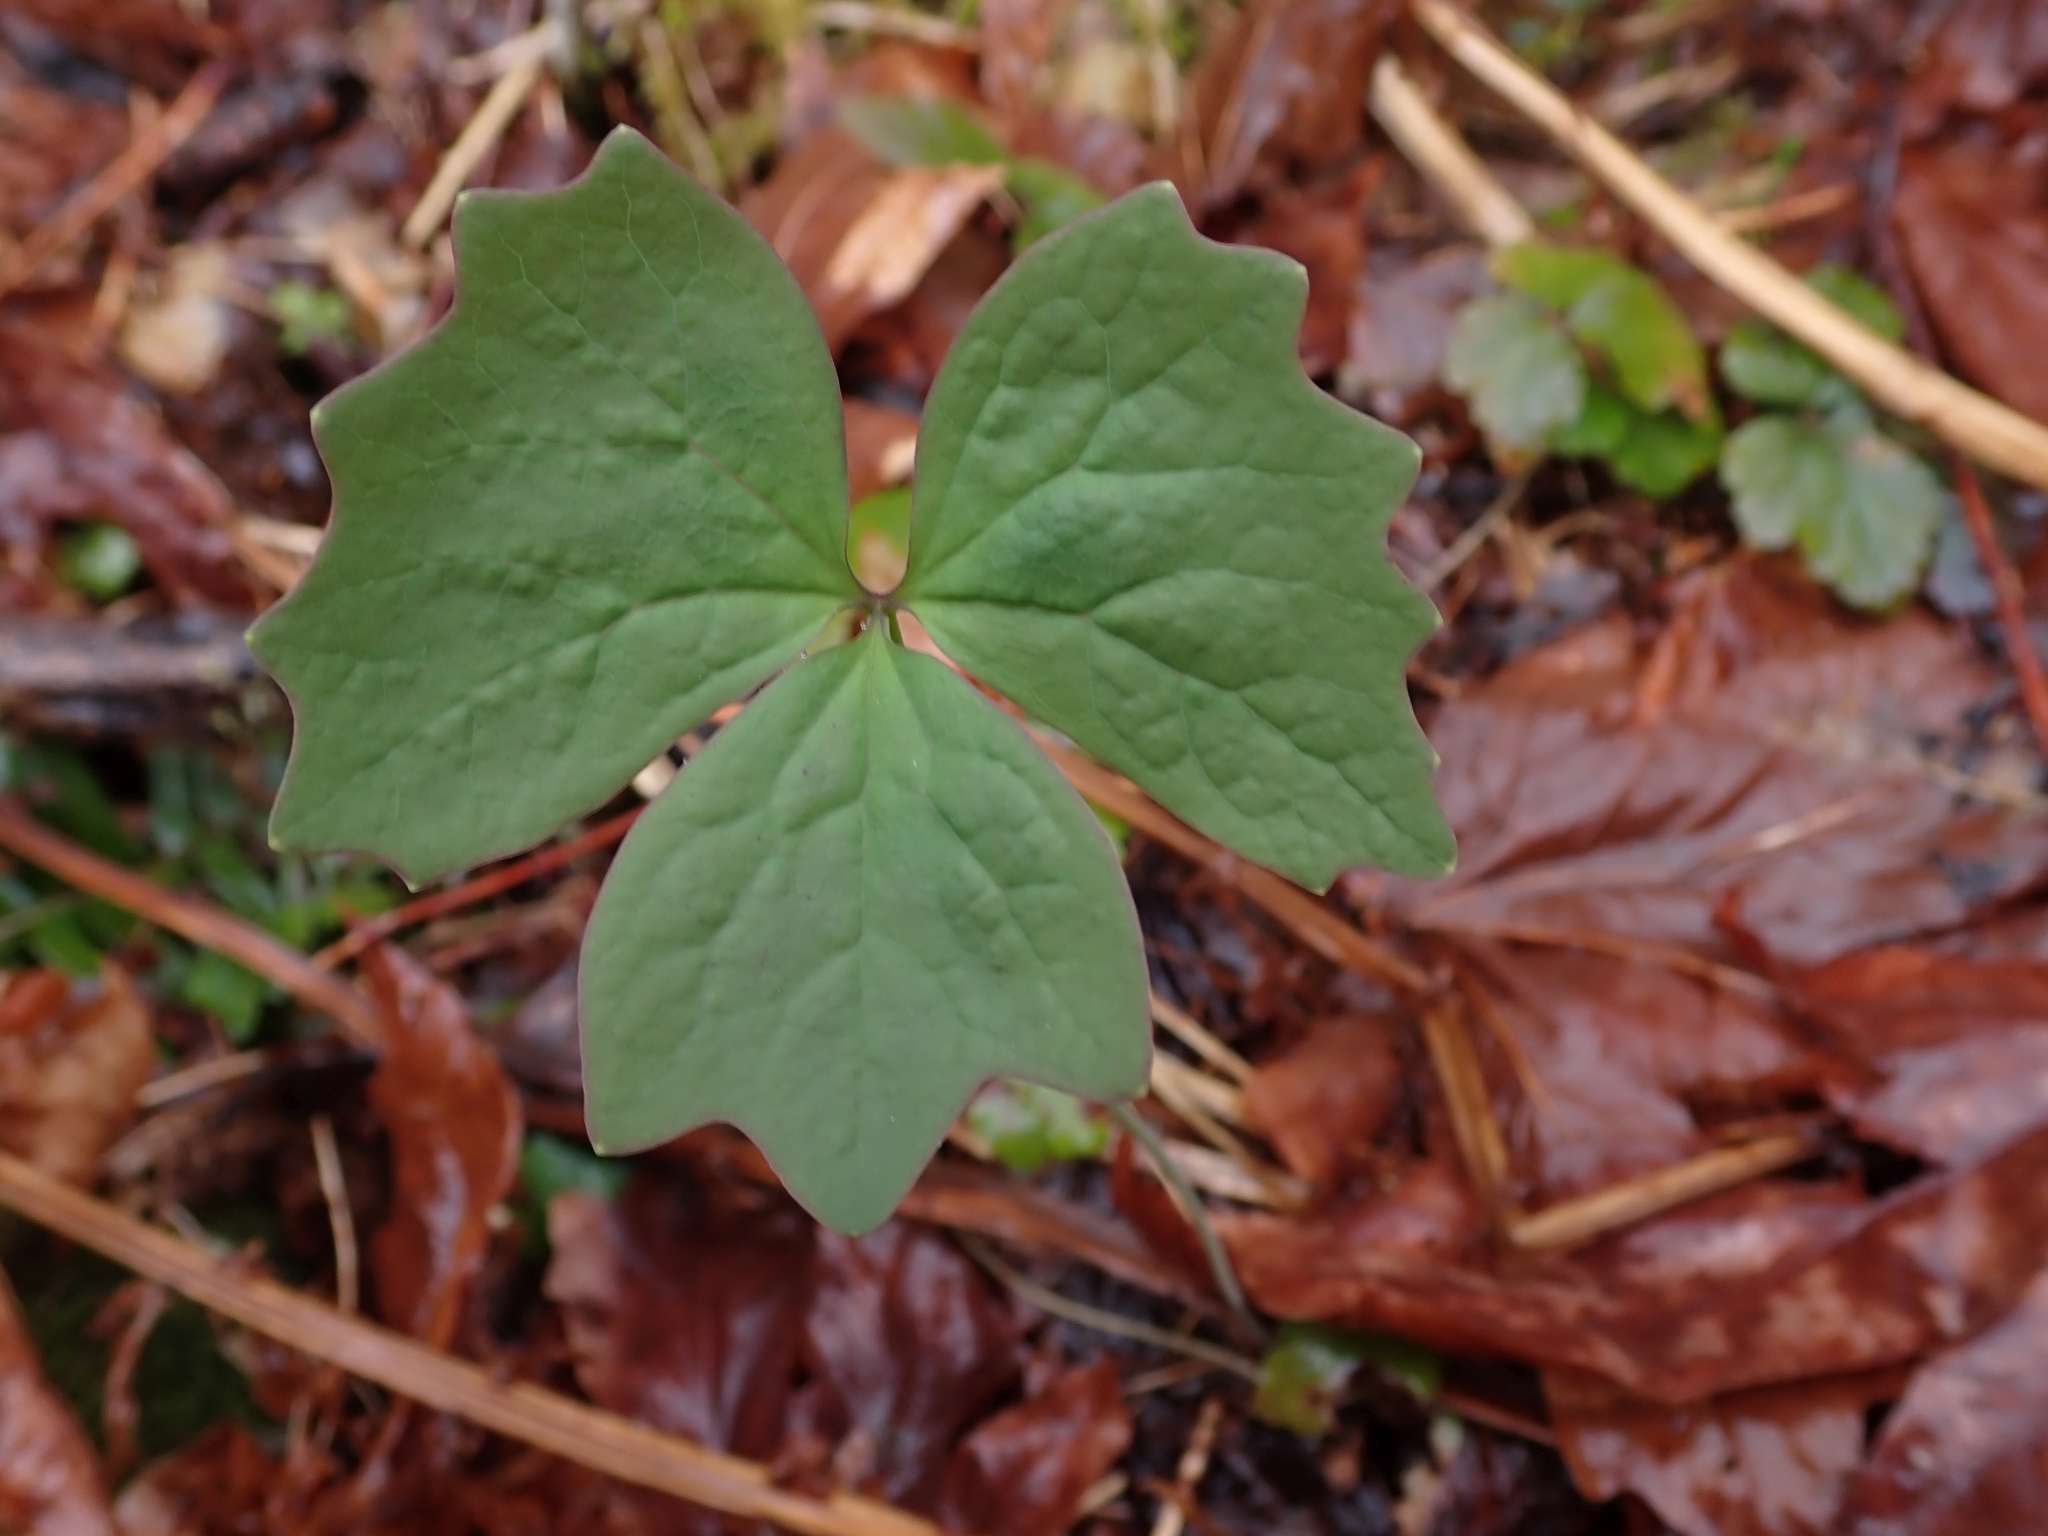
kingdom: Plantae
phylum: Tracheophyta
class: Magnoliopsida
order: Ranunculales
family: Berberidaceae
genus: Achlys
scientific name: Achlys triphylla
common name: Vanilla-leaf
